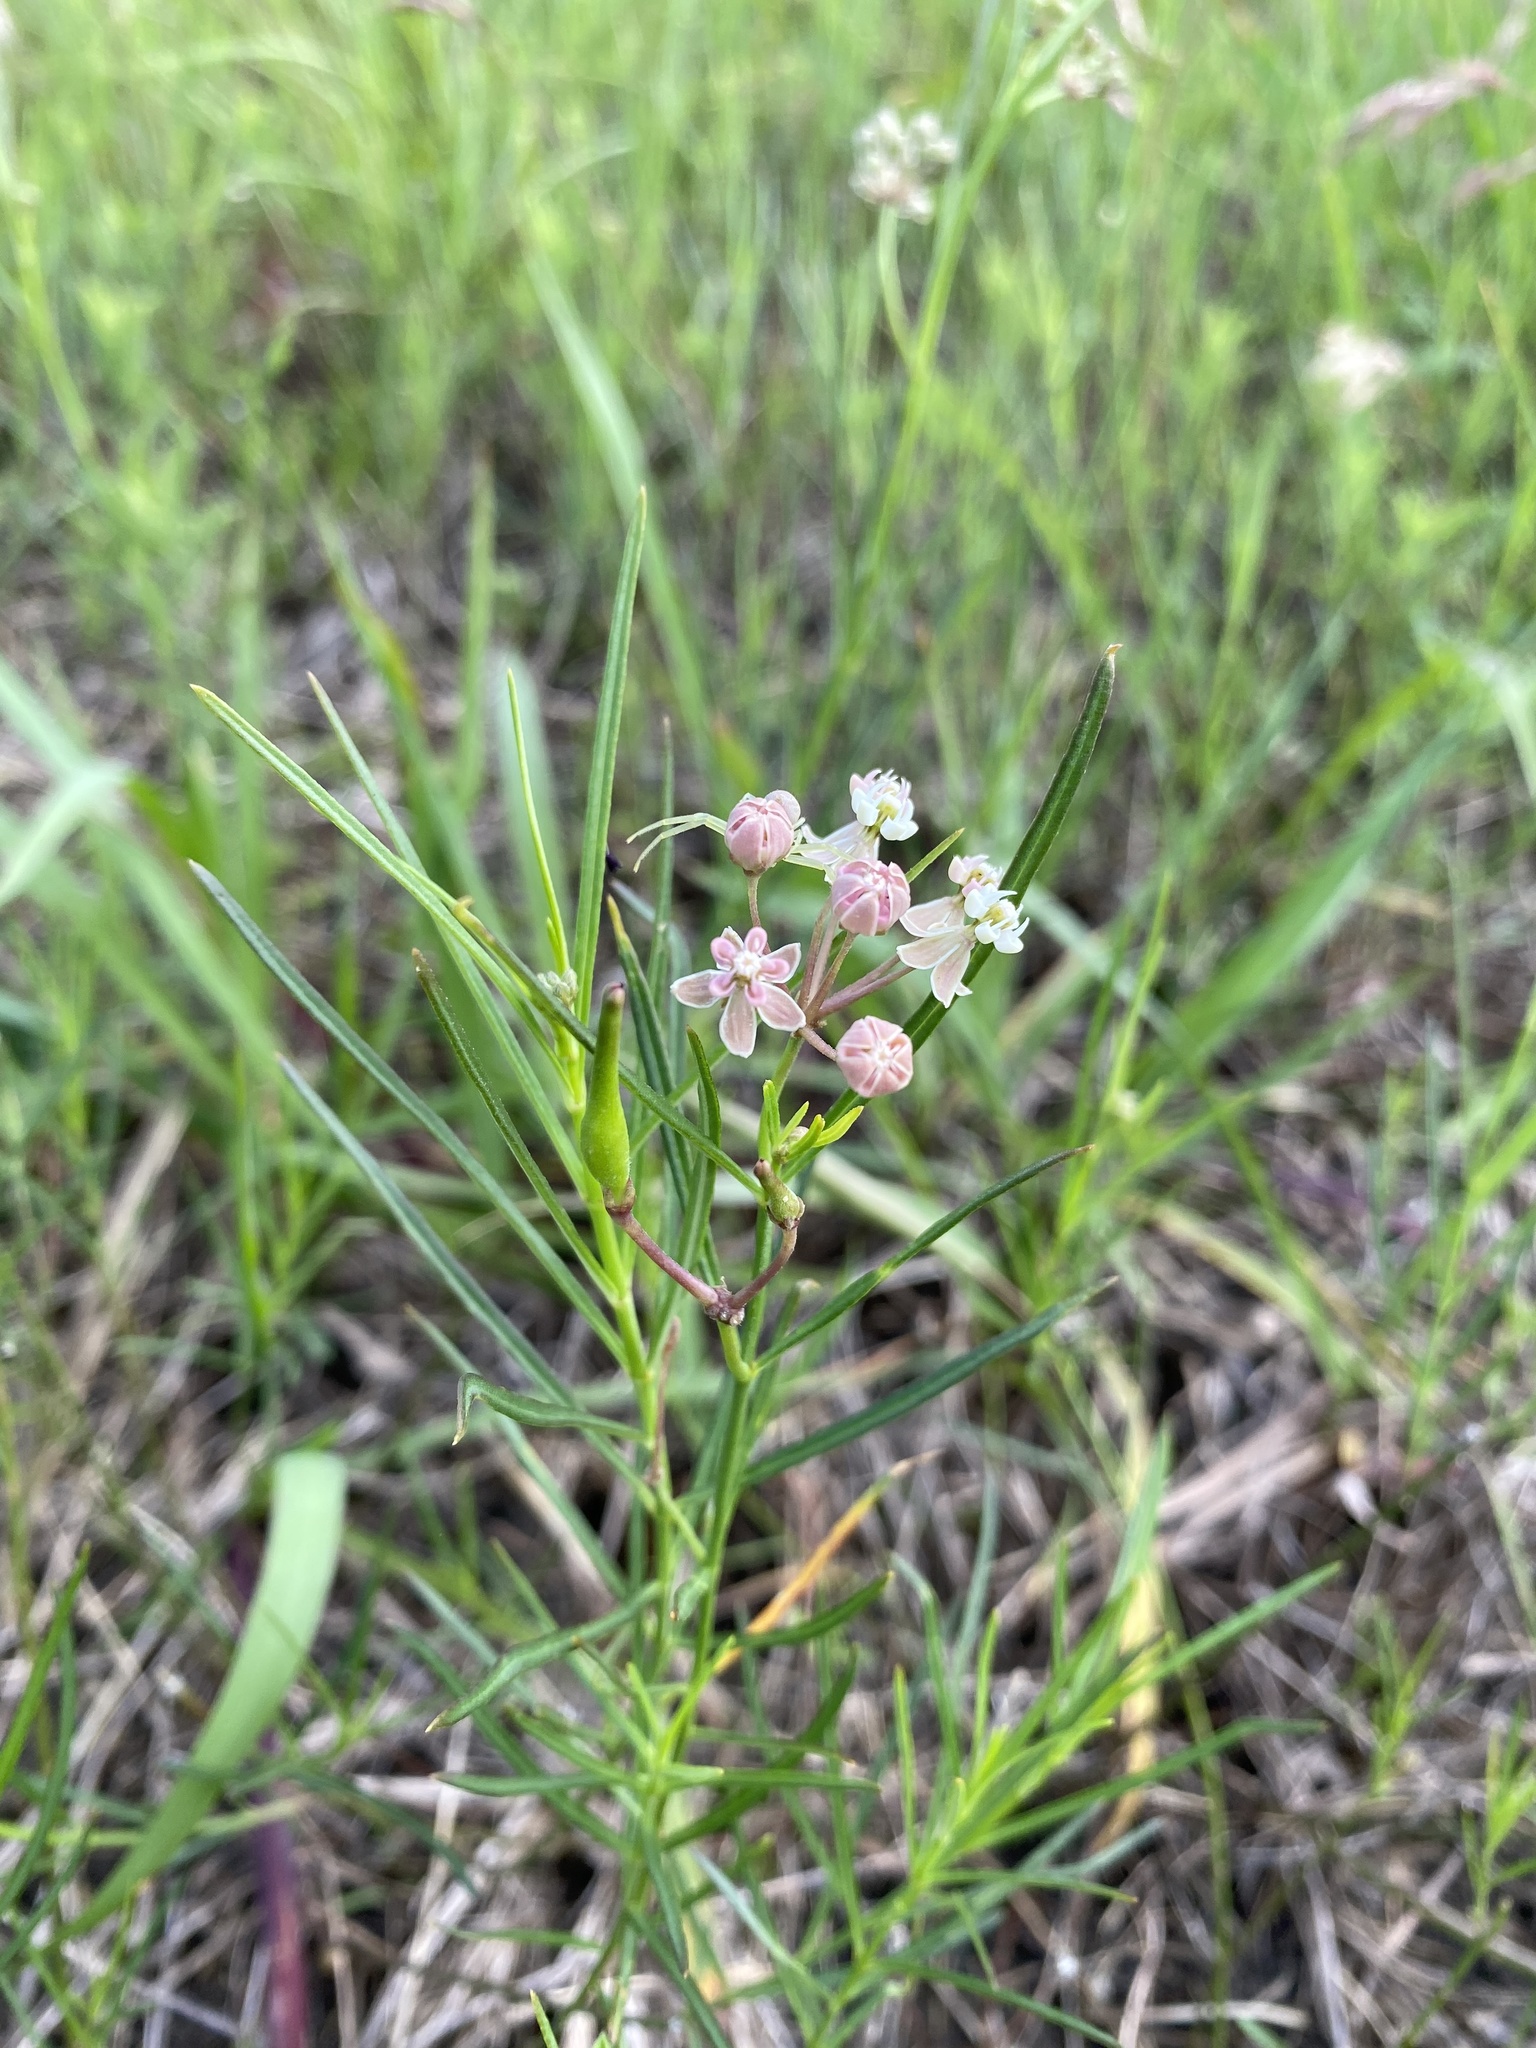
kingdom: Plantae
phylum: Tracheophyta
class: Magnoliopsida
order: Gentianales
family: Apocynaceae
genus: Asclepias
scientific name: Asclepias verticillata
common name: Eastern whorled milkweed
